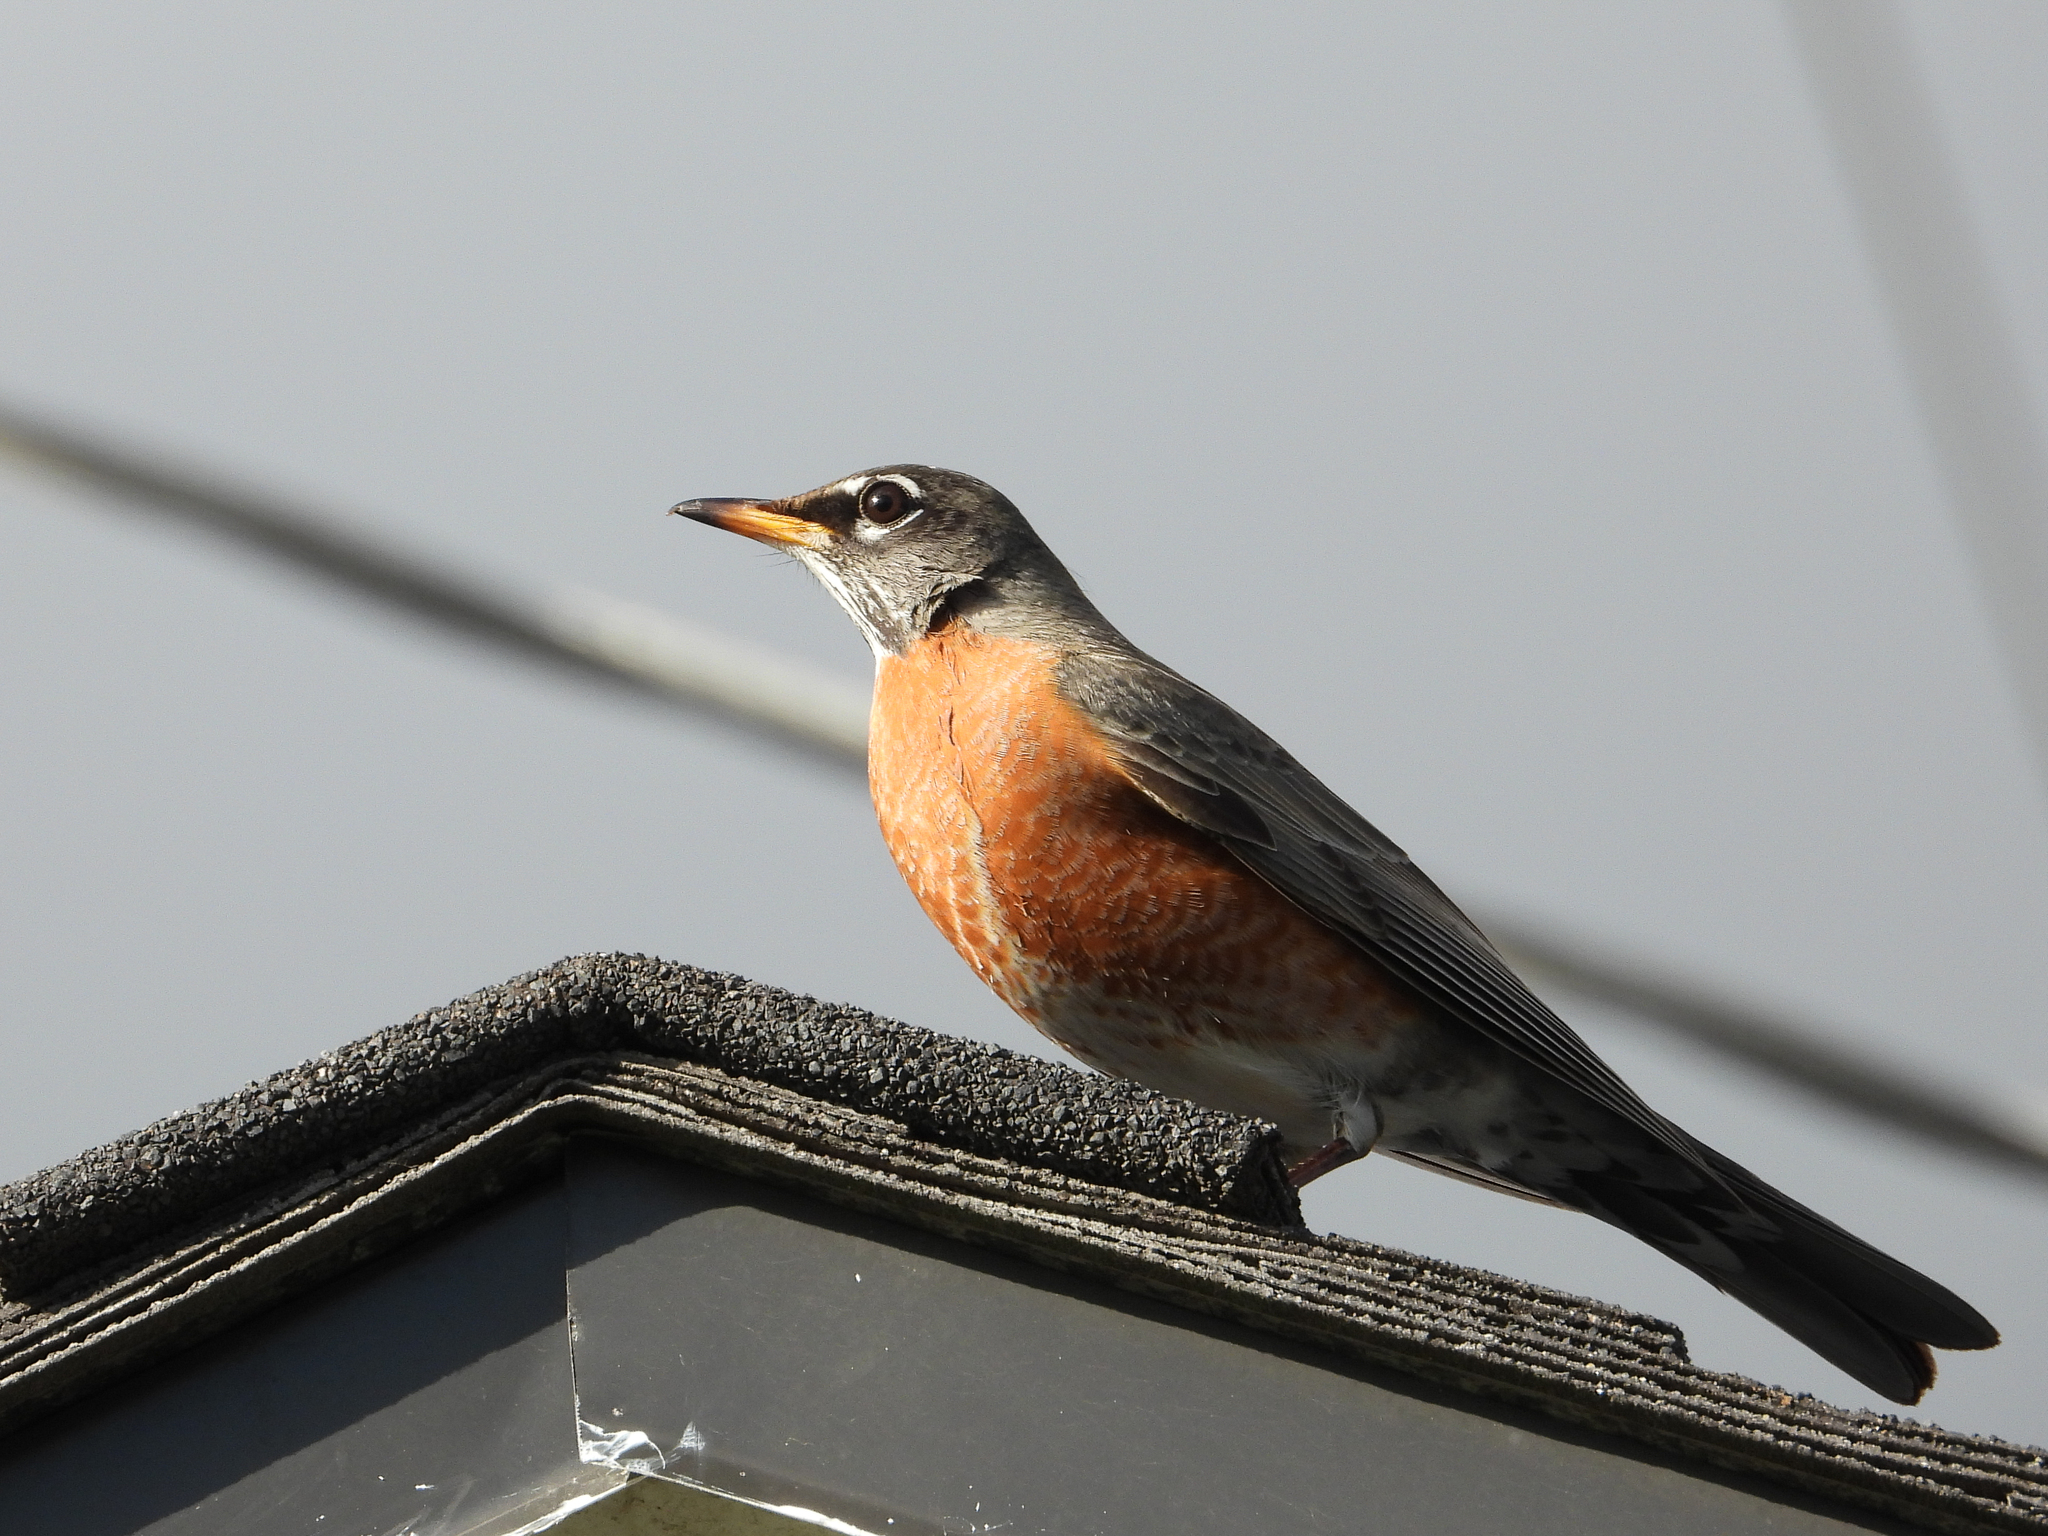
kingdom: Animalia
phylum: Chordata
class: Aves
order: Passeriformes
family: Turdidae
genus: Turdus
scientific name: Turdus migratorius
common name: American robin
